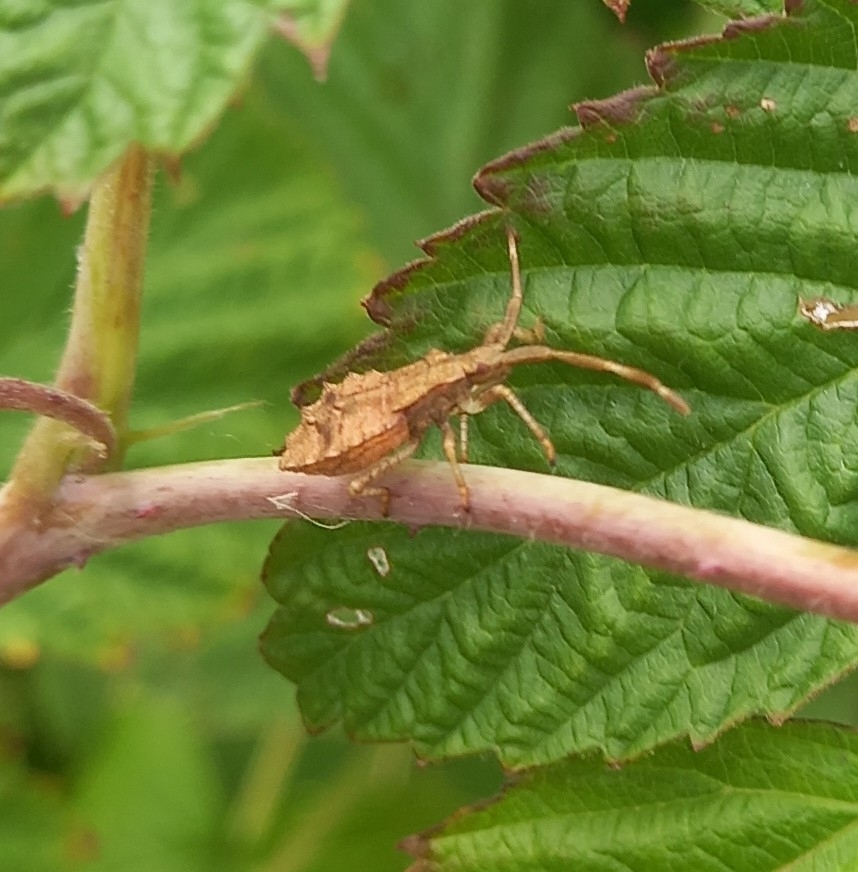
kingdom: Animalia
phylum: Arthropoda
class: Insecta
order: Hemiptera
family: Coreidae
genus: Coreus
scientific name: Coreus marginatus
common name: Dock bug
